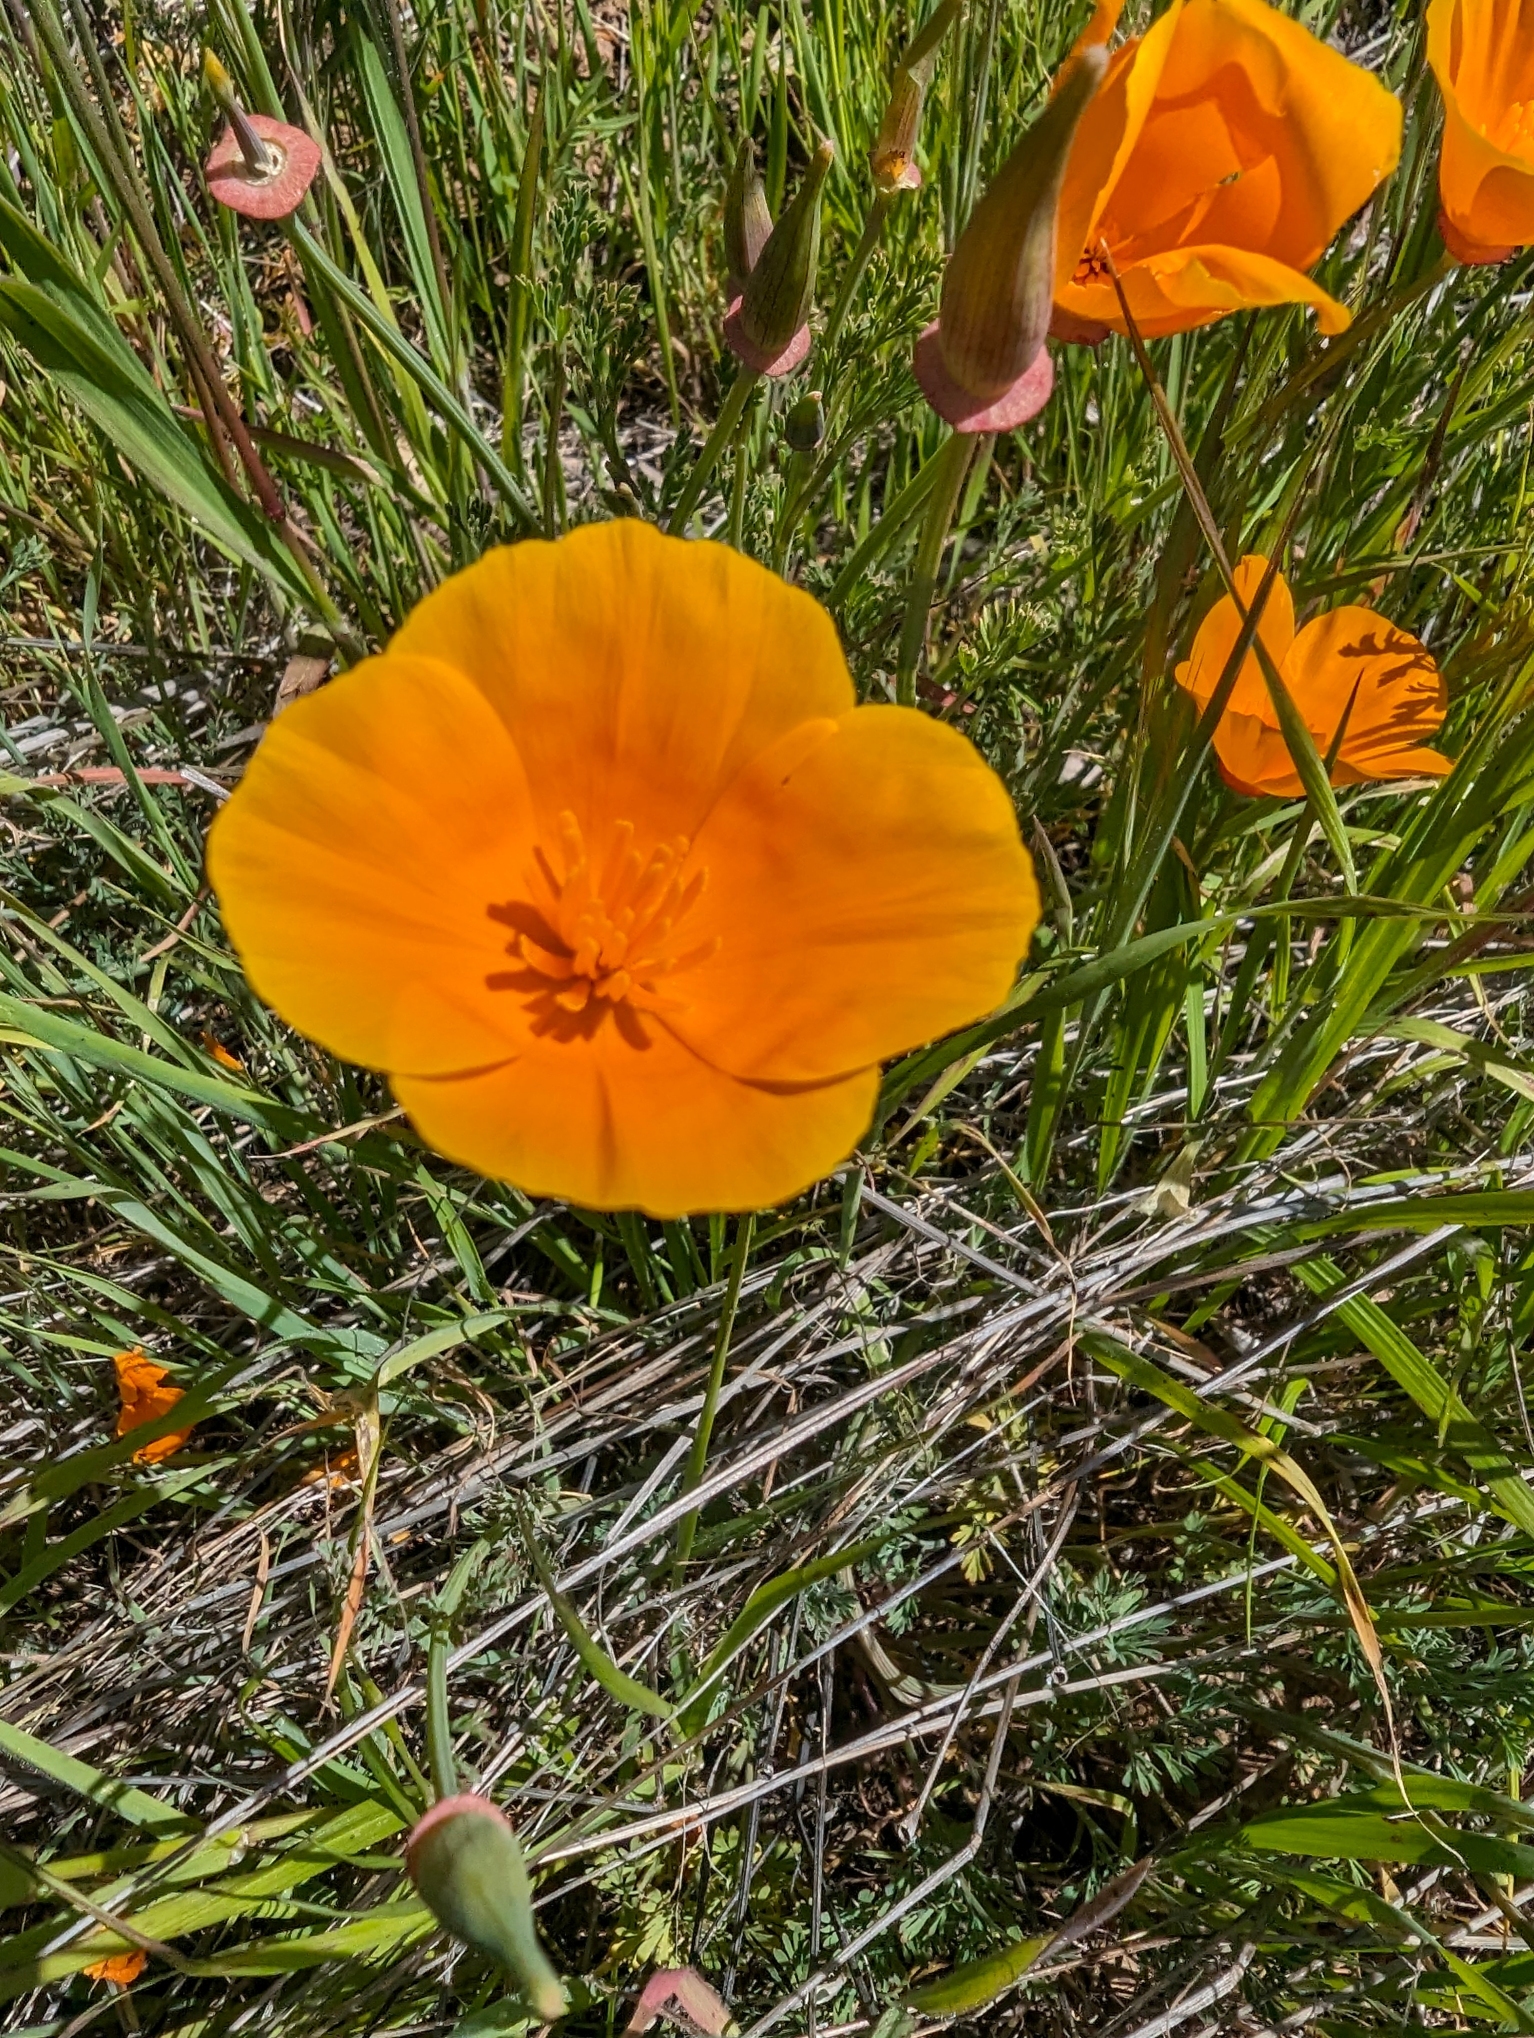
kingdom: Plantae
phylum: Tracheophyta
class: Magnoliopsida
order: Ranunculales
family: Papaveraceae
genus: Eschscholzia
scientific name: Eschscholzia californica
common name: California poppy
